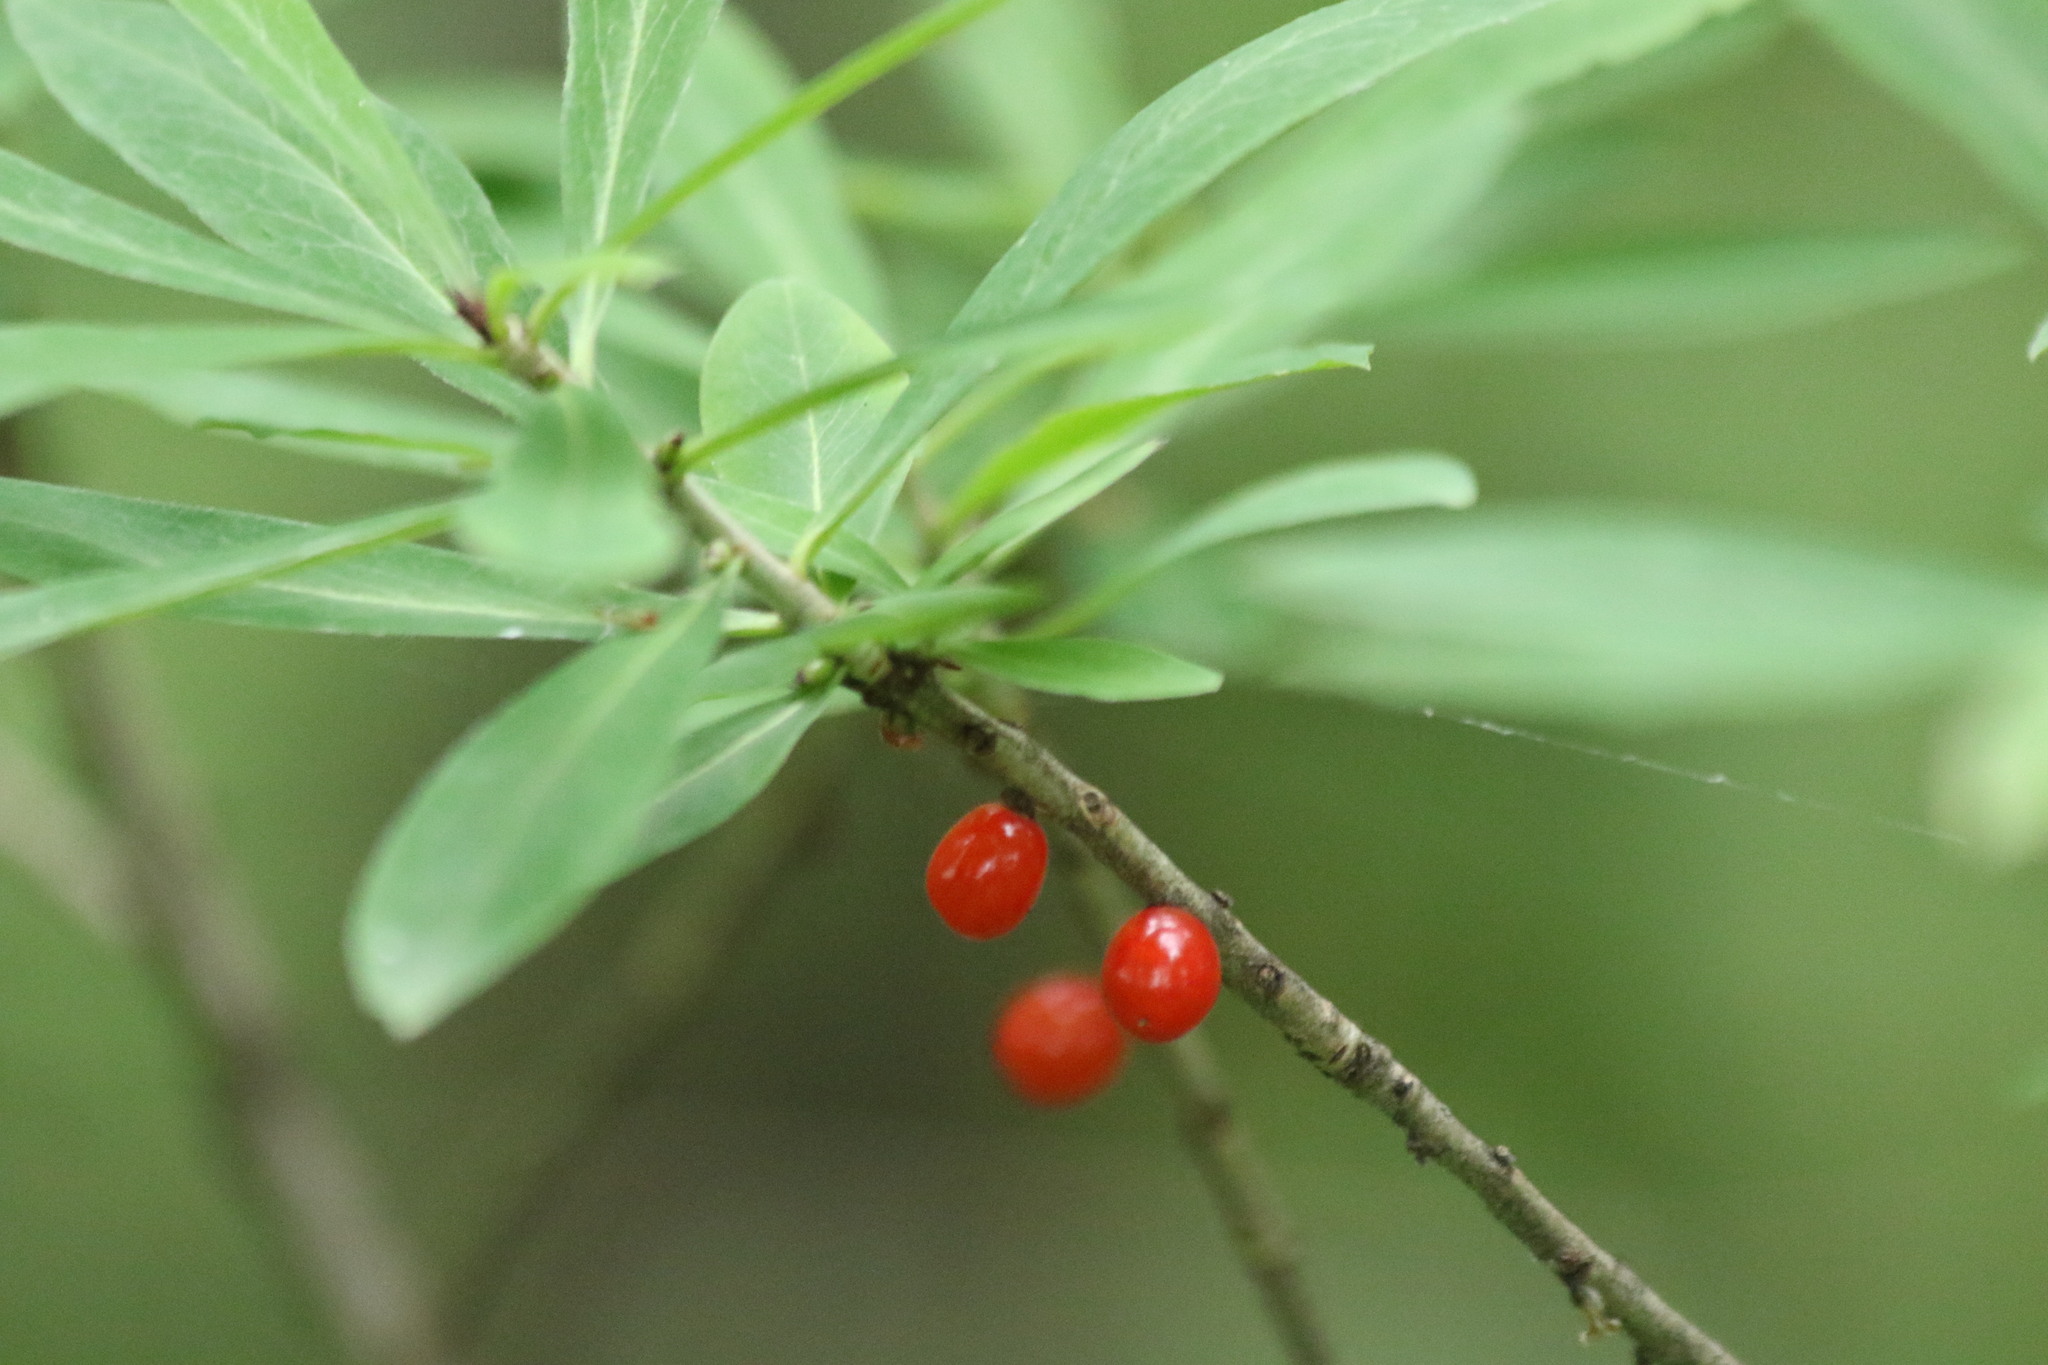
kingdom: Plantae
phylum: Tracheophyta
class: Magnoliopsida
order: Malvales
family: Thymelaeaceae
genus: Daphne
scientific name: Daphne mezereum
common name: Mezereon
